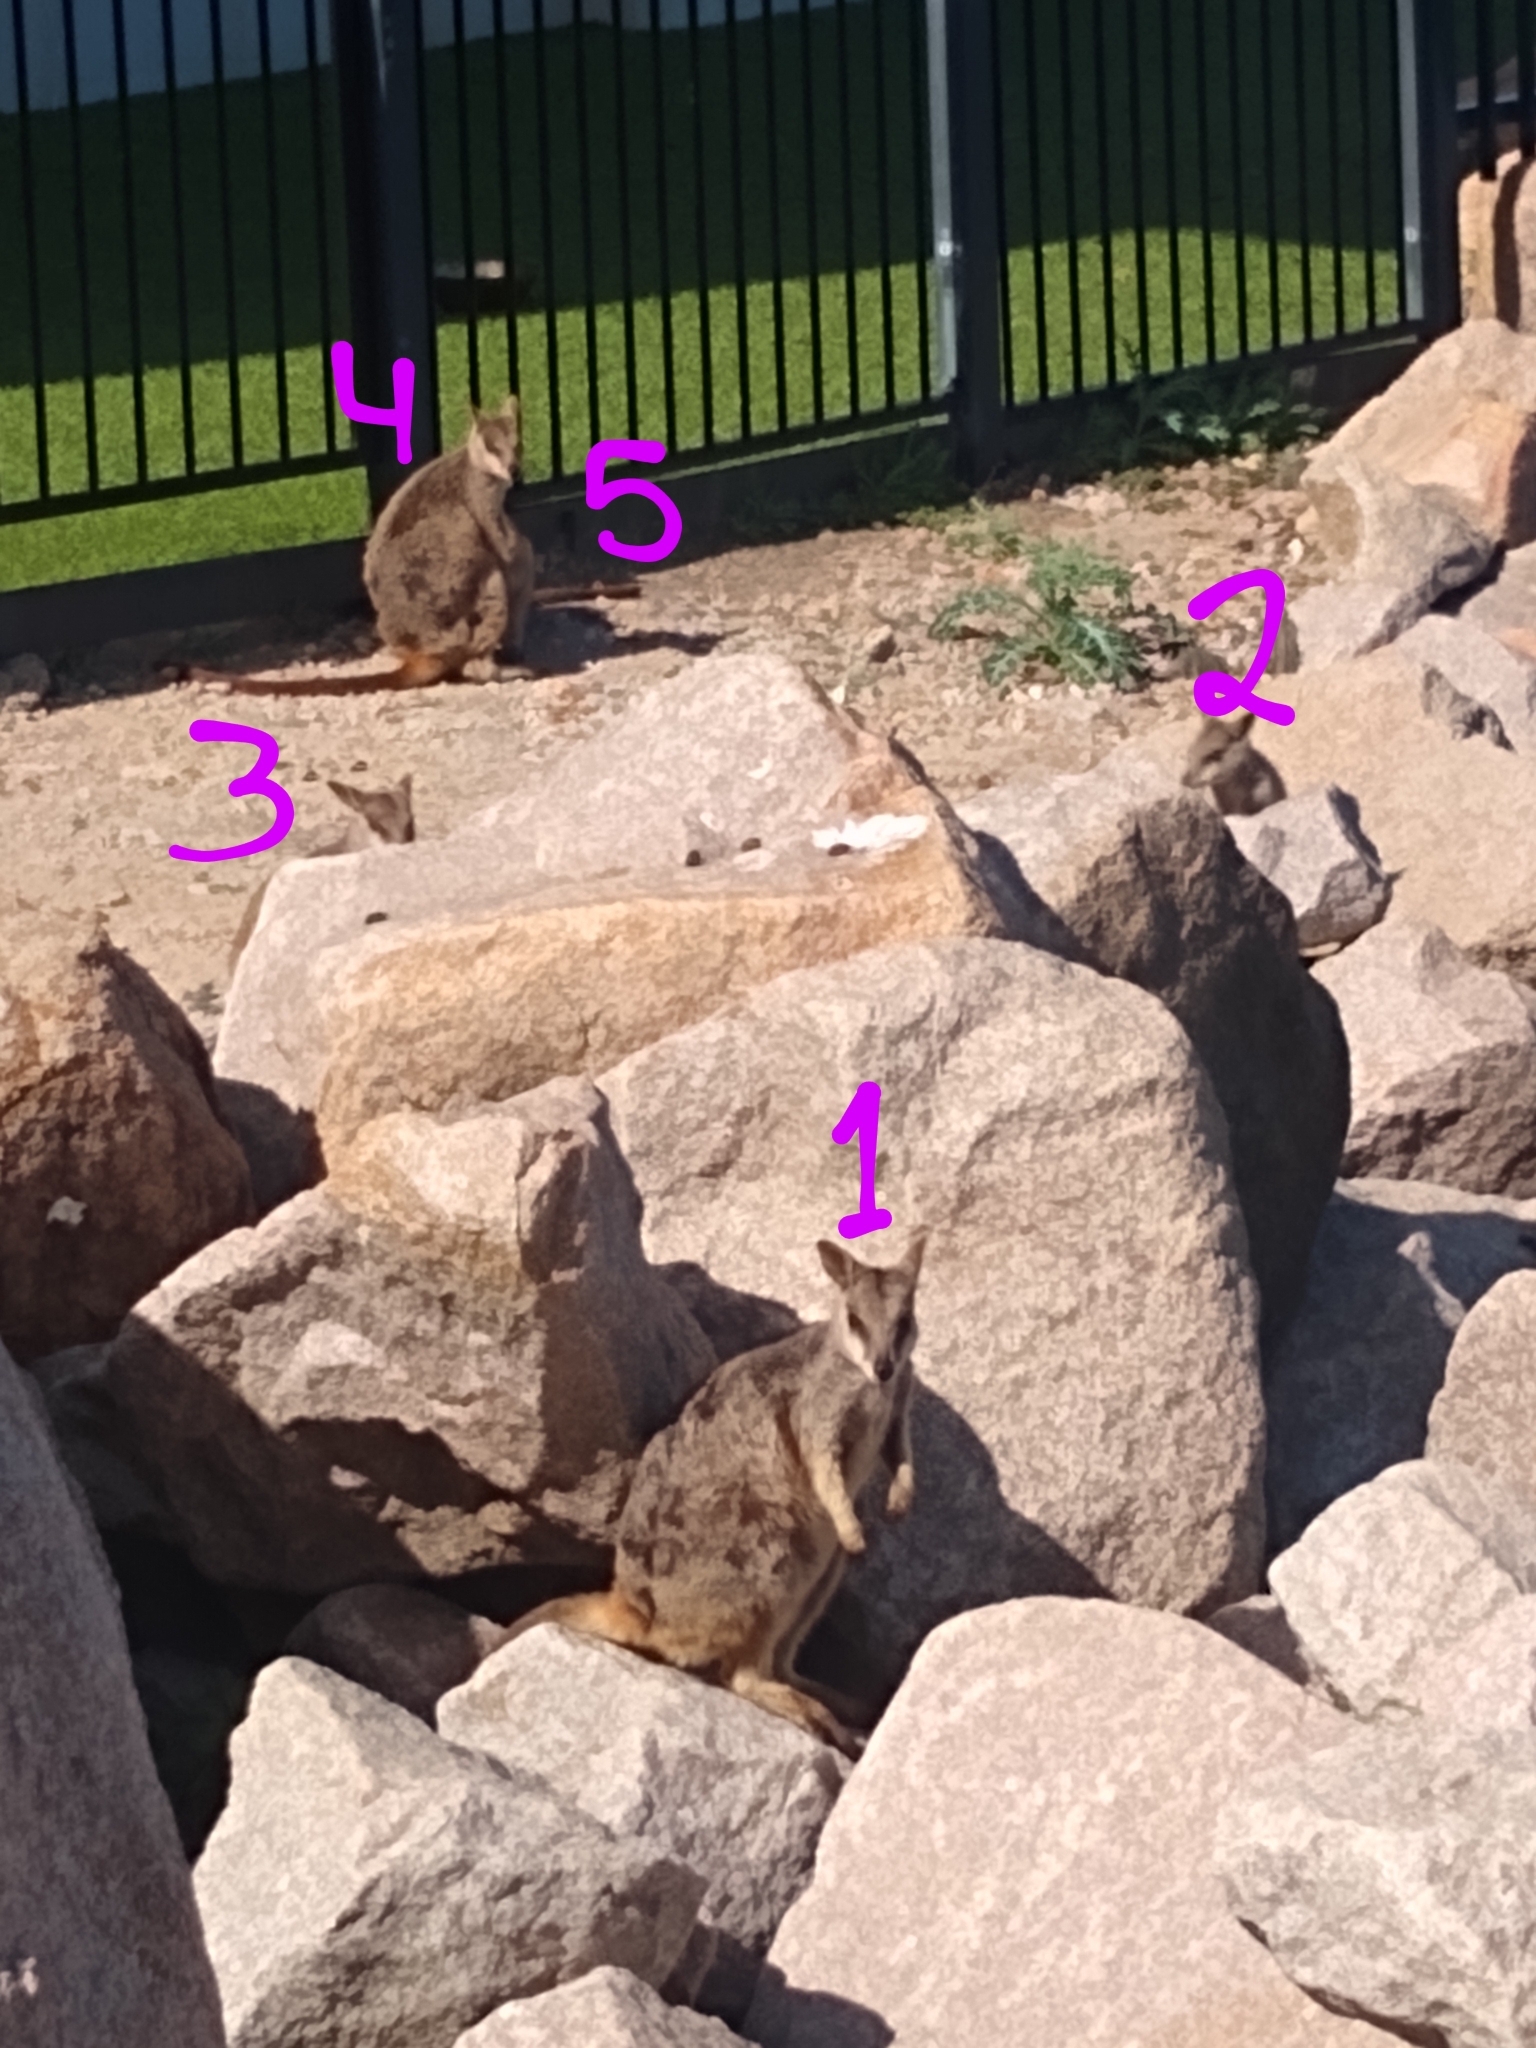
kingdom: Animalia
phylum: Chordata
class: Mammalia
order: Diprotodontia
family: Macropodidae
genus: Petrogale
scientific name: Petrogale assimilis
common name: Allied rock wallaby
